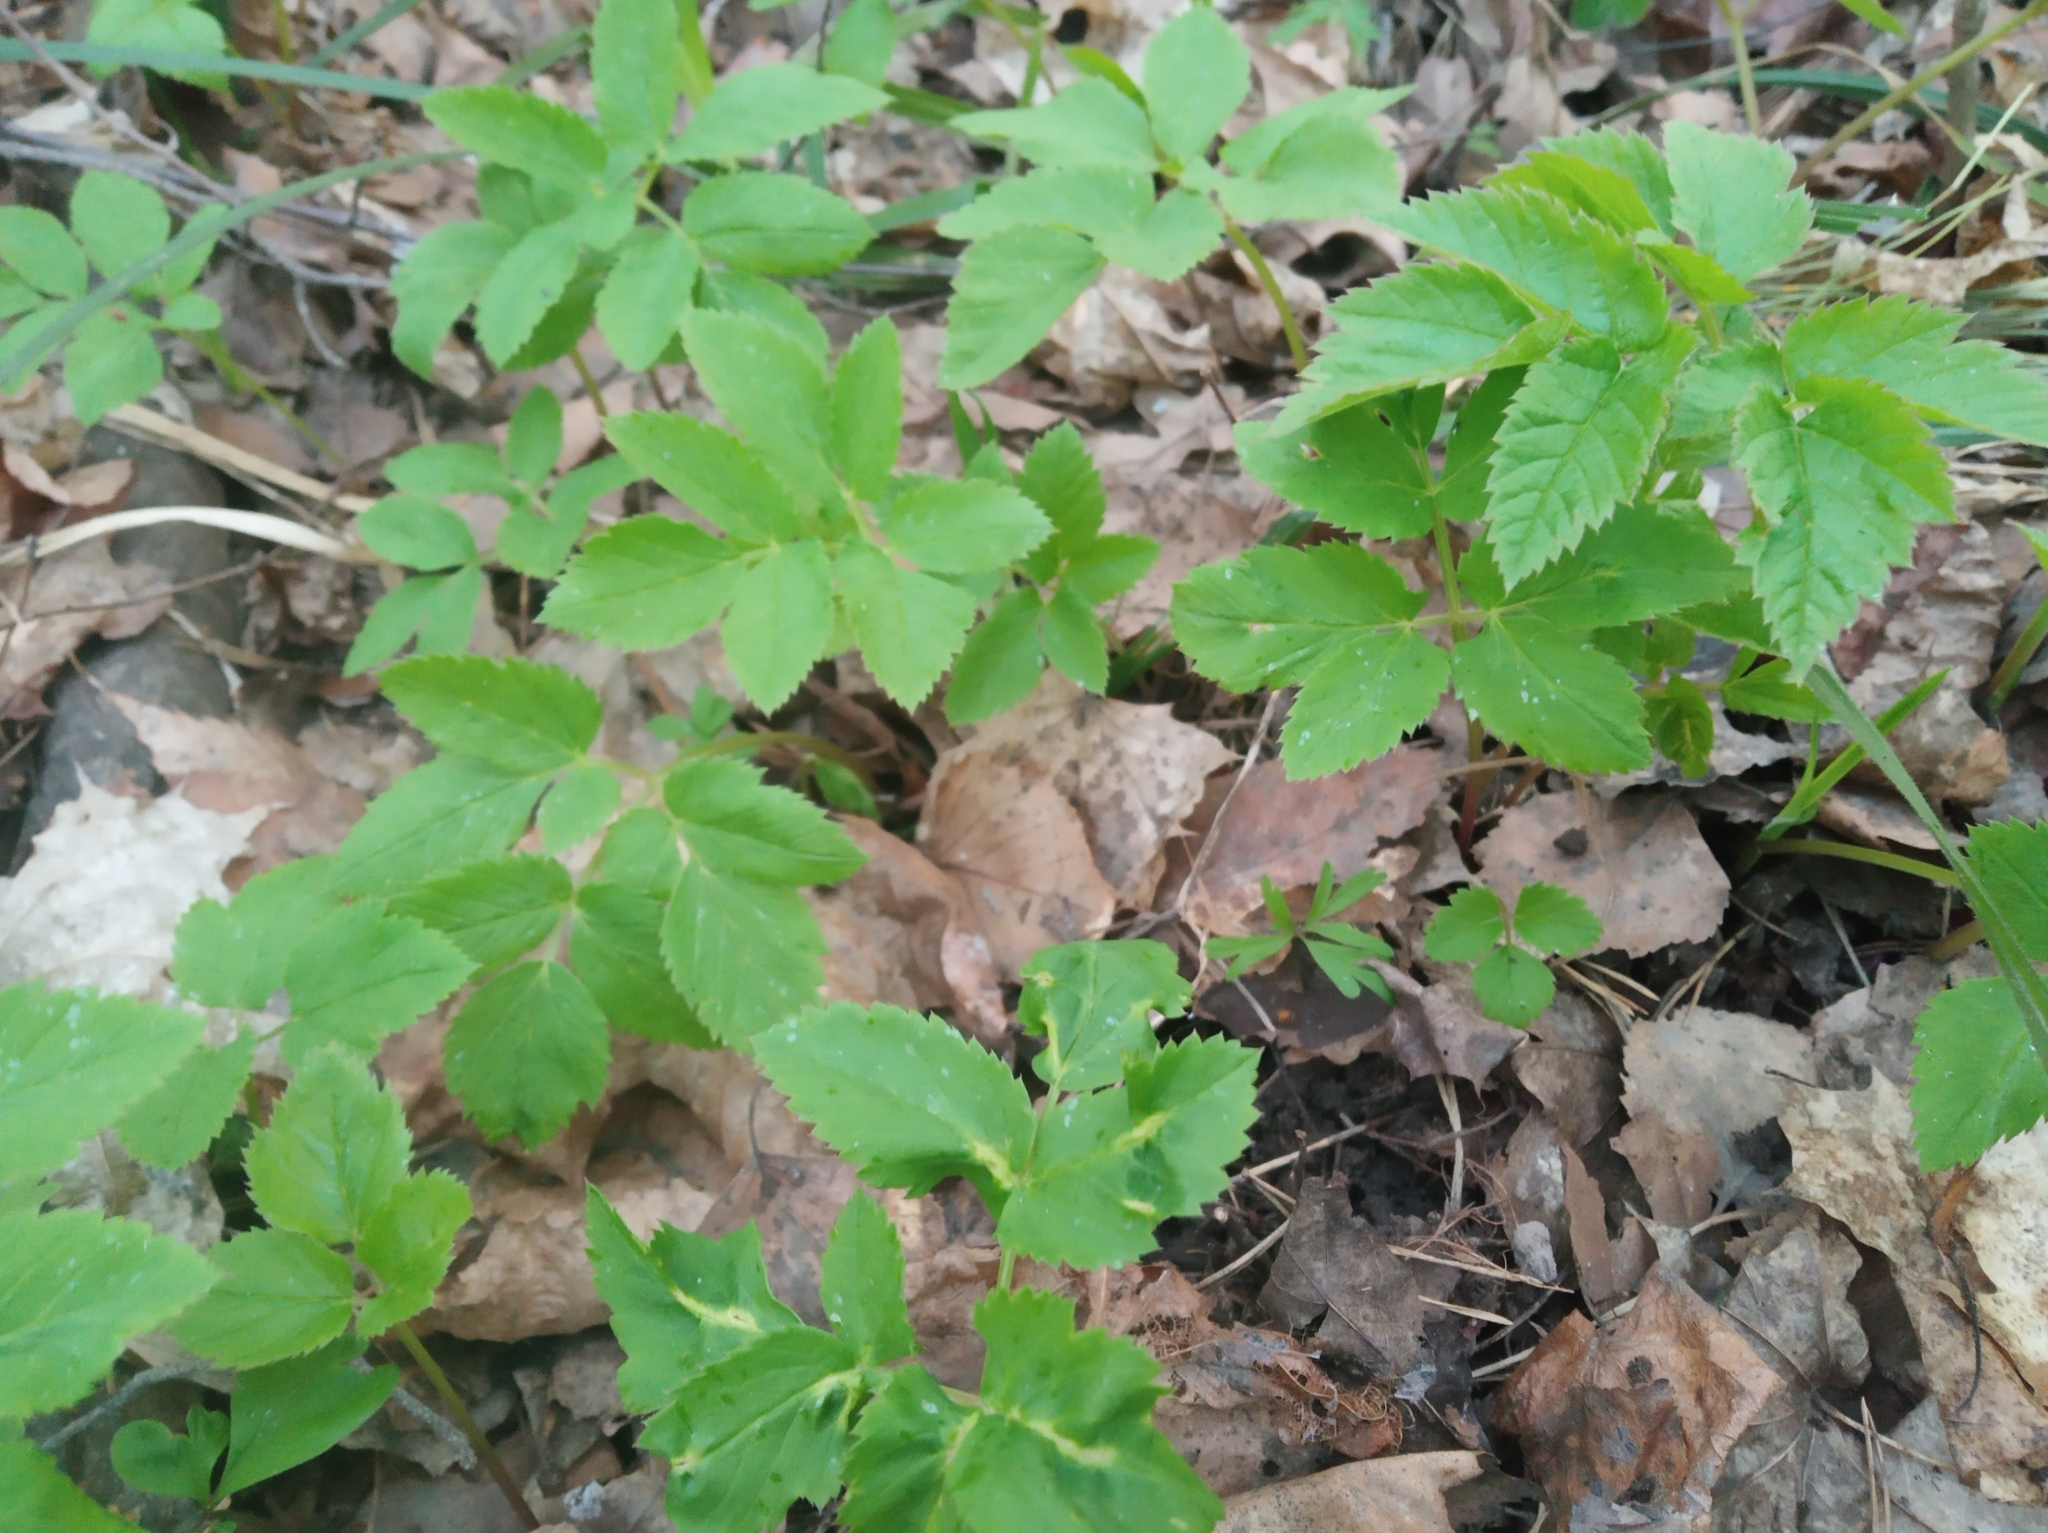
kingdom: Plantae
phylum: Tracheophyta
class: Magnoliopsida
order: Apiales
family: Apiaceae
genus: Aegopodium
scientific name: Aegopodium podagraria
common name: Ground-elder
